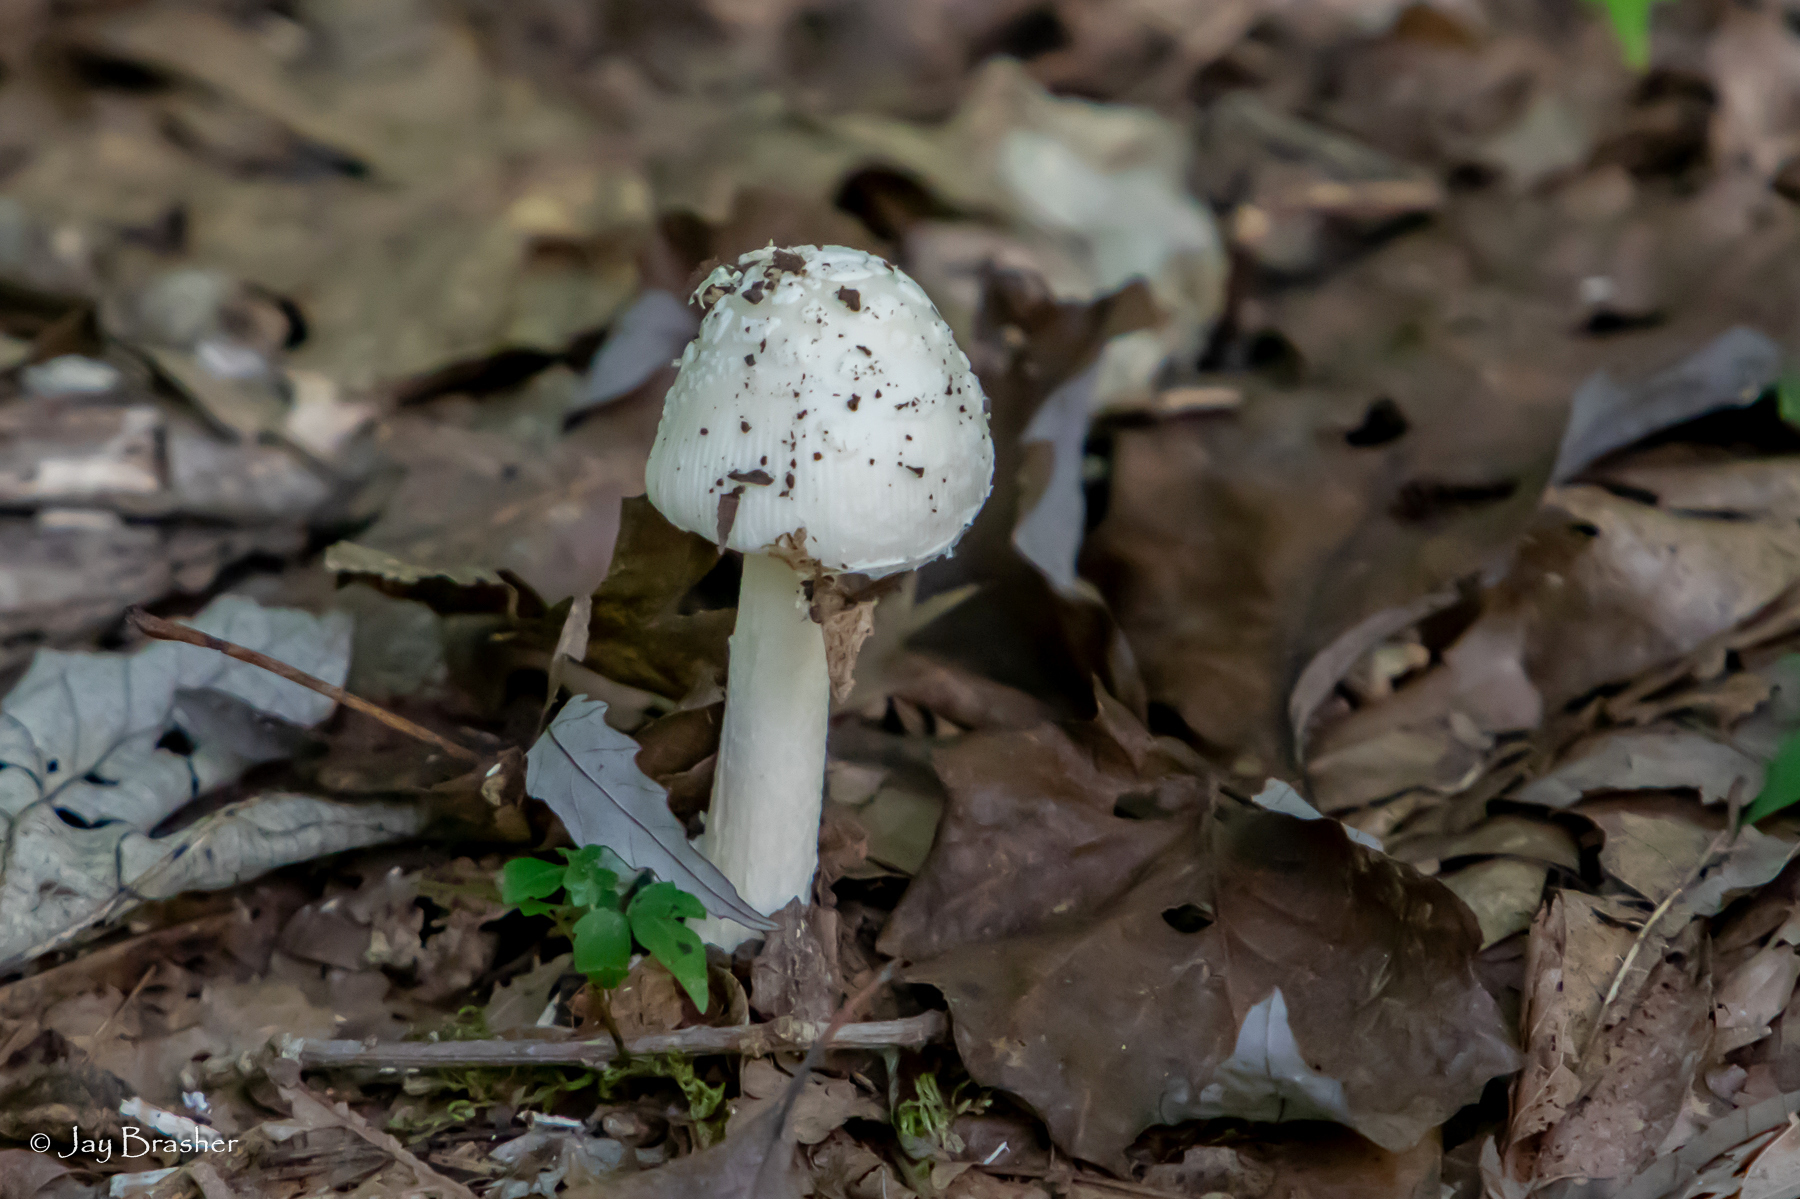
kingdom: Fungi
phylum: Basidiomycota
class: Agaricomycetes
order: Agaricales
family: Agaricaceae
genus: Coprinus
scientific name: Coprinus comatus
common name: Lawyer's wig
